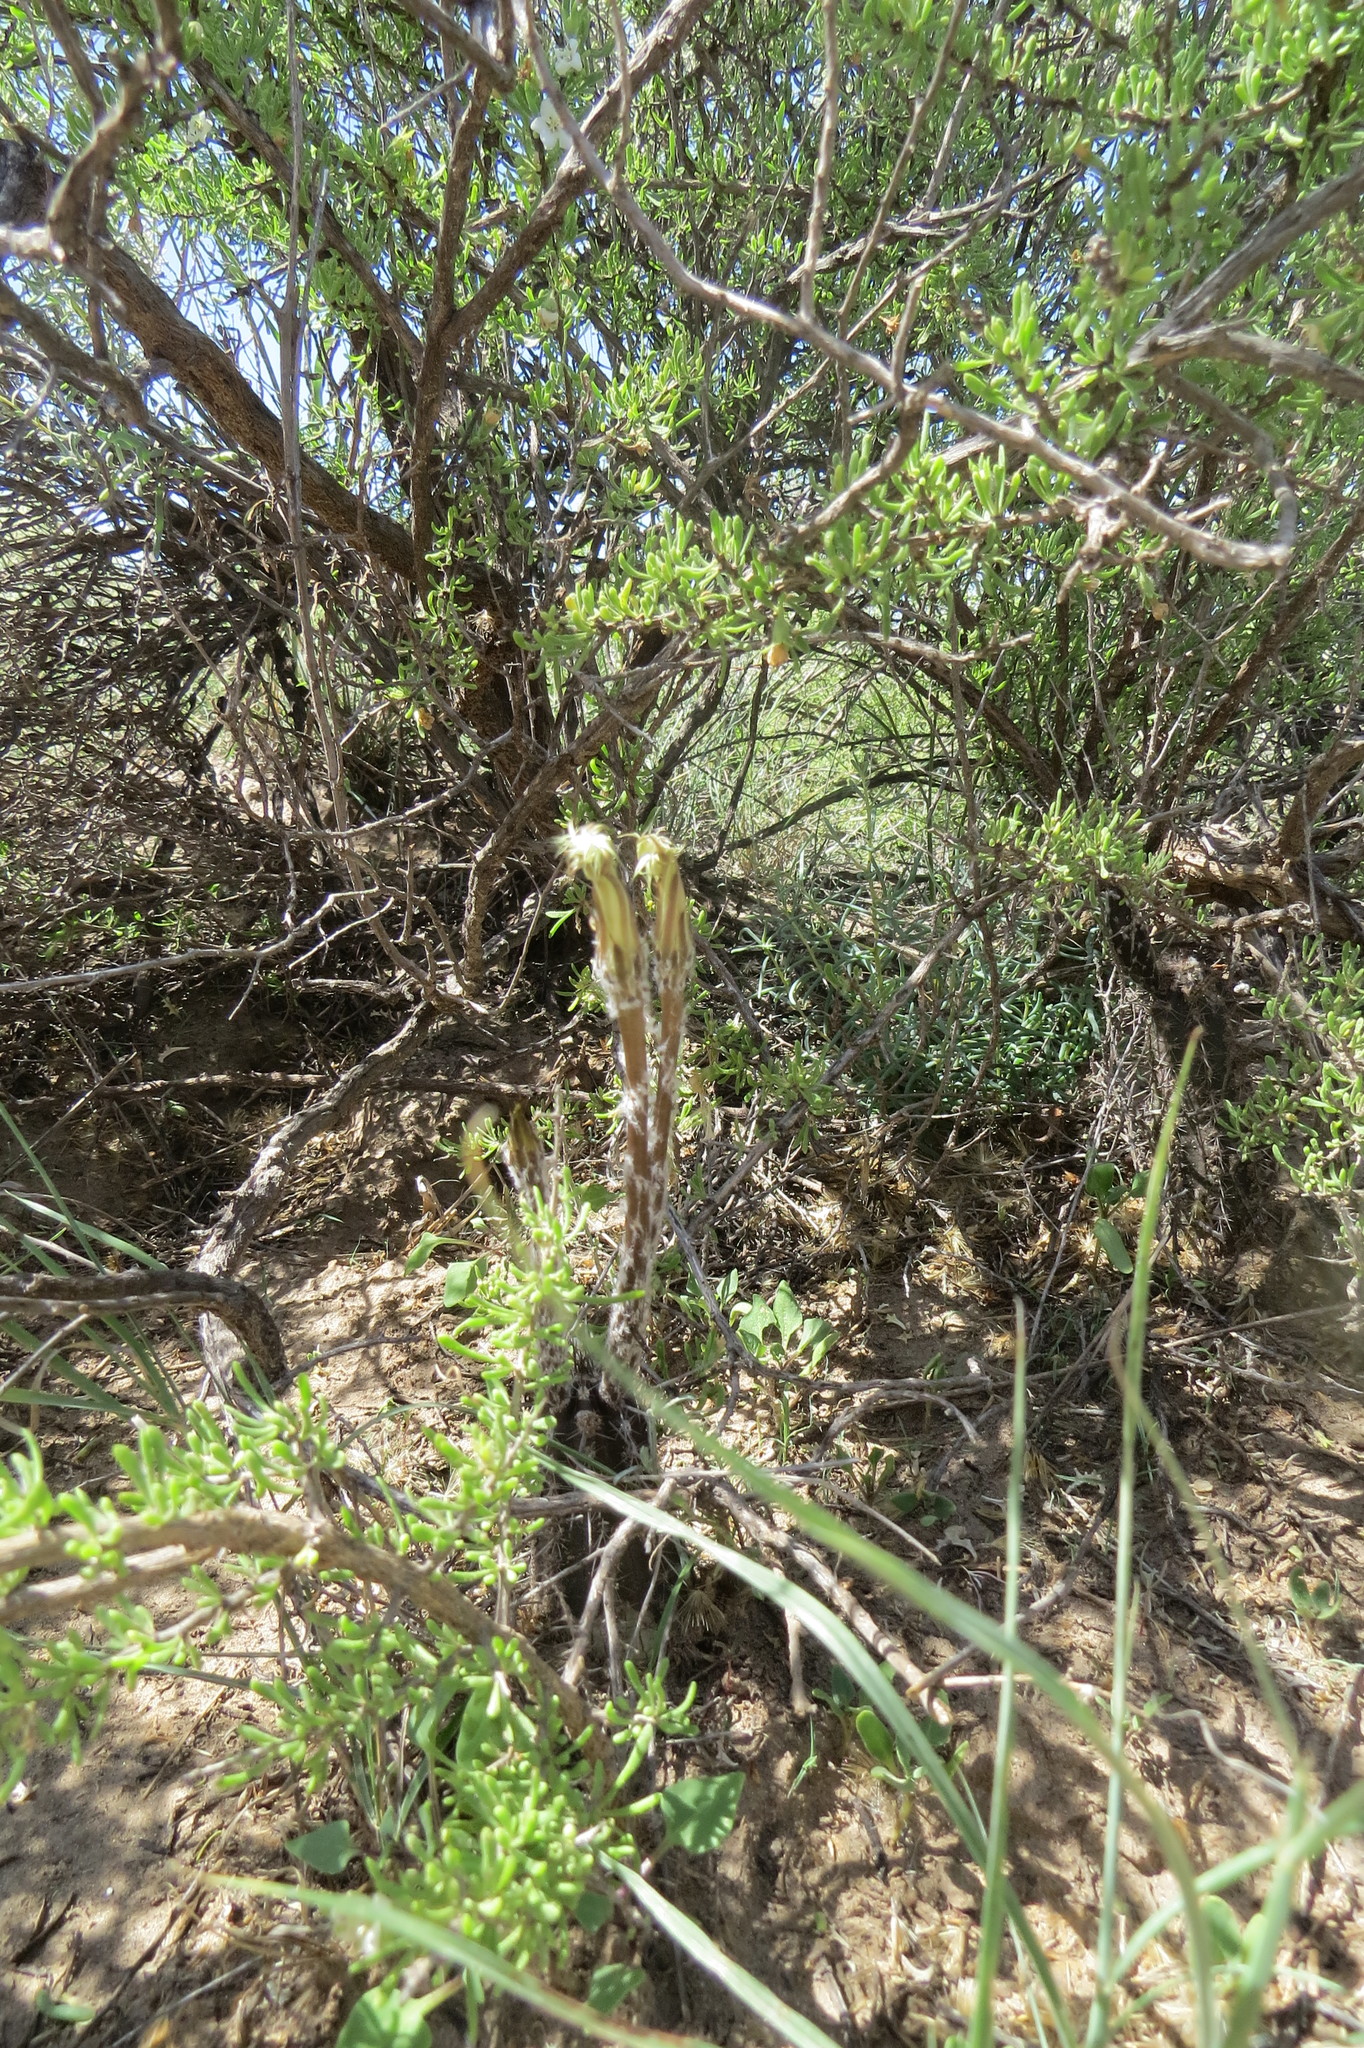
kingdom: Plantae
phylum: Tracheophyta
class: Magnoliopsida
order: Caryophyllales
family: Cactaceae
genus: Setiechinopsis
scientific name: Setiechinopsis mirabilis
